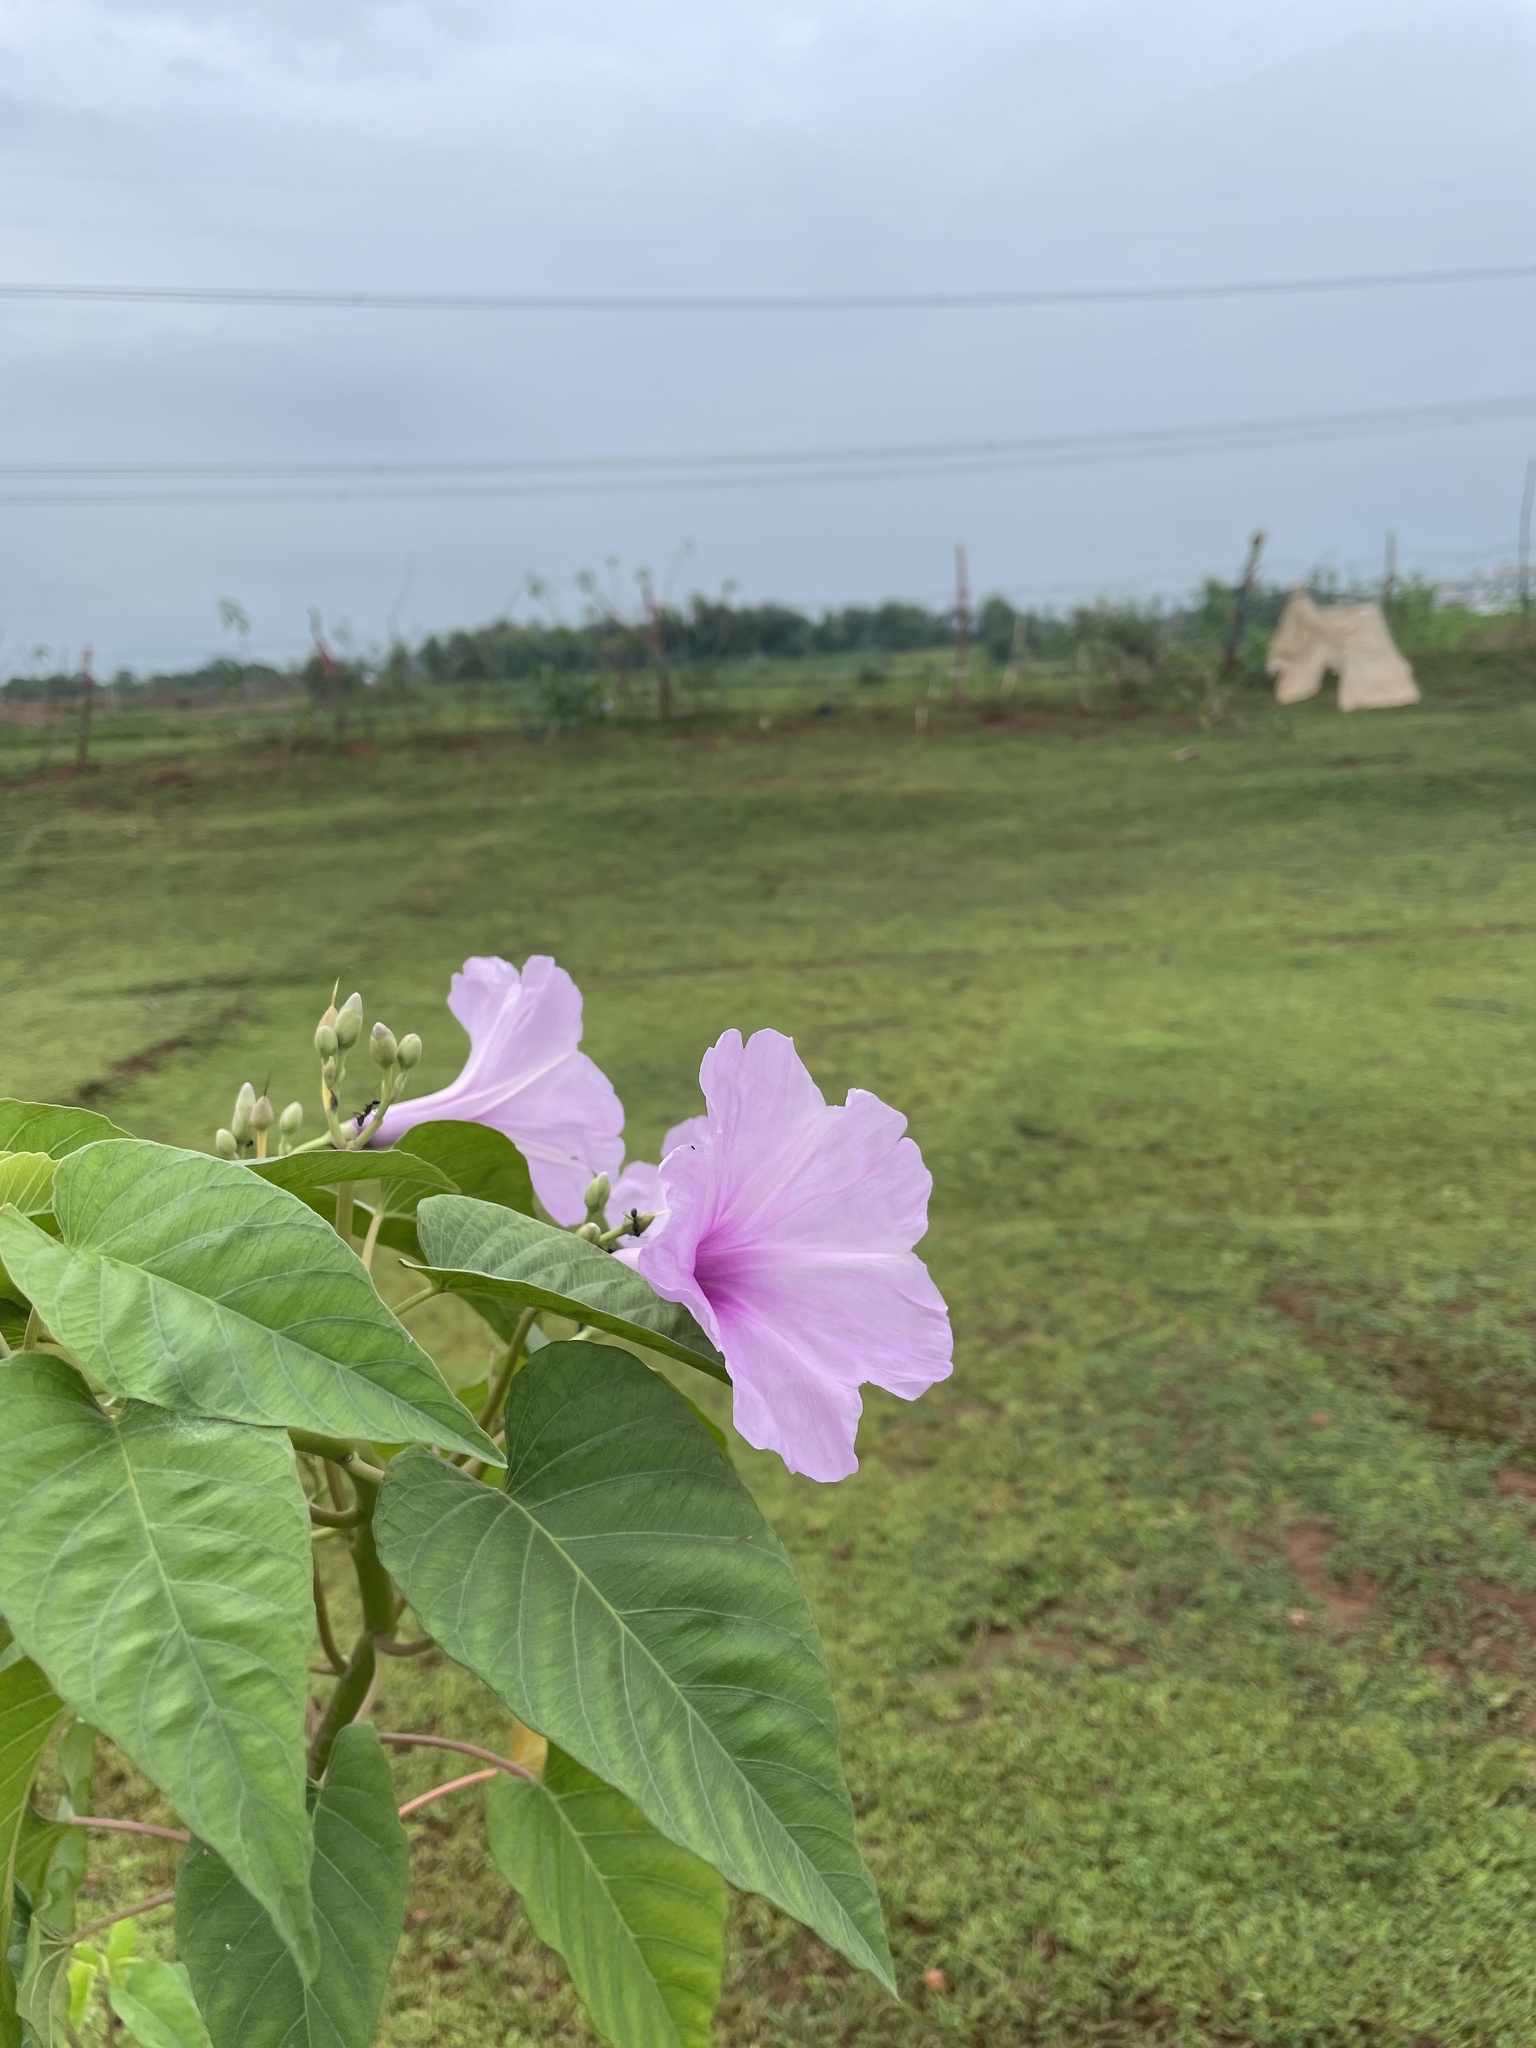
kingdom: Plantae
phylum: Tracheophyta
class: Magnoliopsida
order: Solanales
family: Convolvulaceae
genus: Ipomoea
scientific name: Ipomoea carnea
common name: Morning-glory
